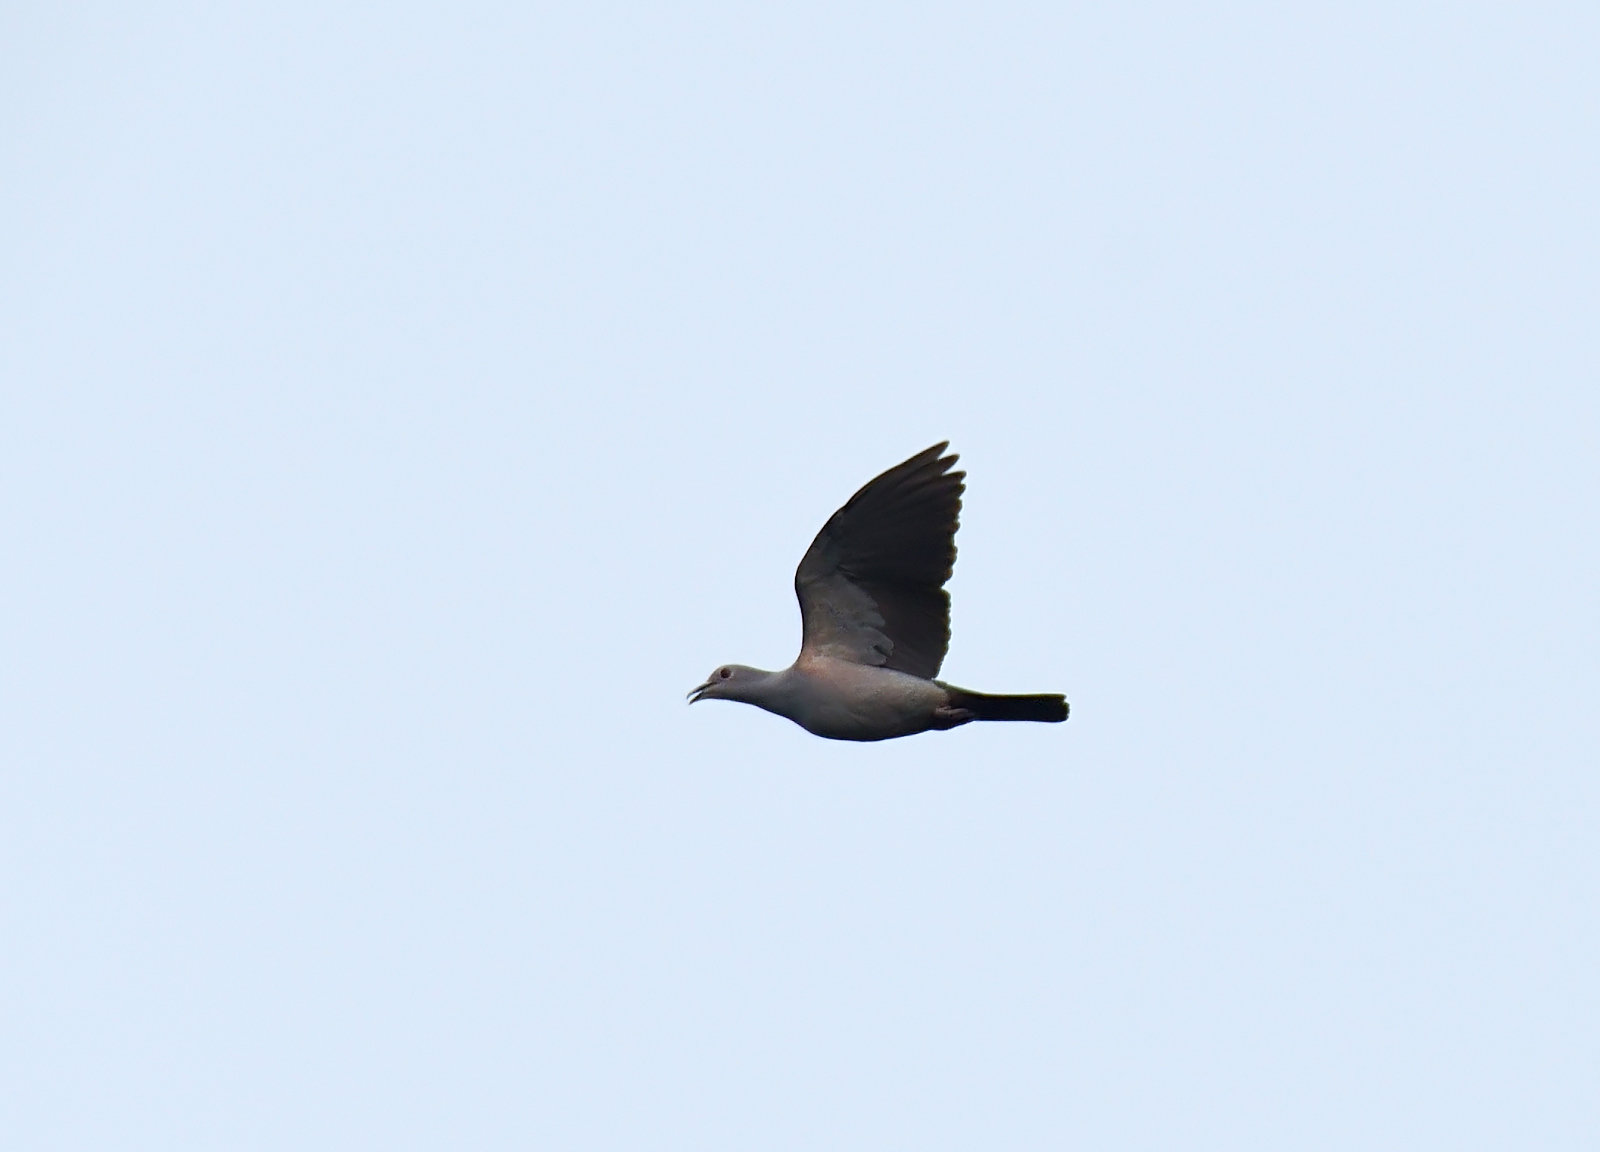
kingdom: Animalia
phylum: Chordata
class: Aves
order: Columbiformes
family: Columbidae
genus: Ducula
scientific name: Ducula aenea
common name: Green imperial pigeon
